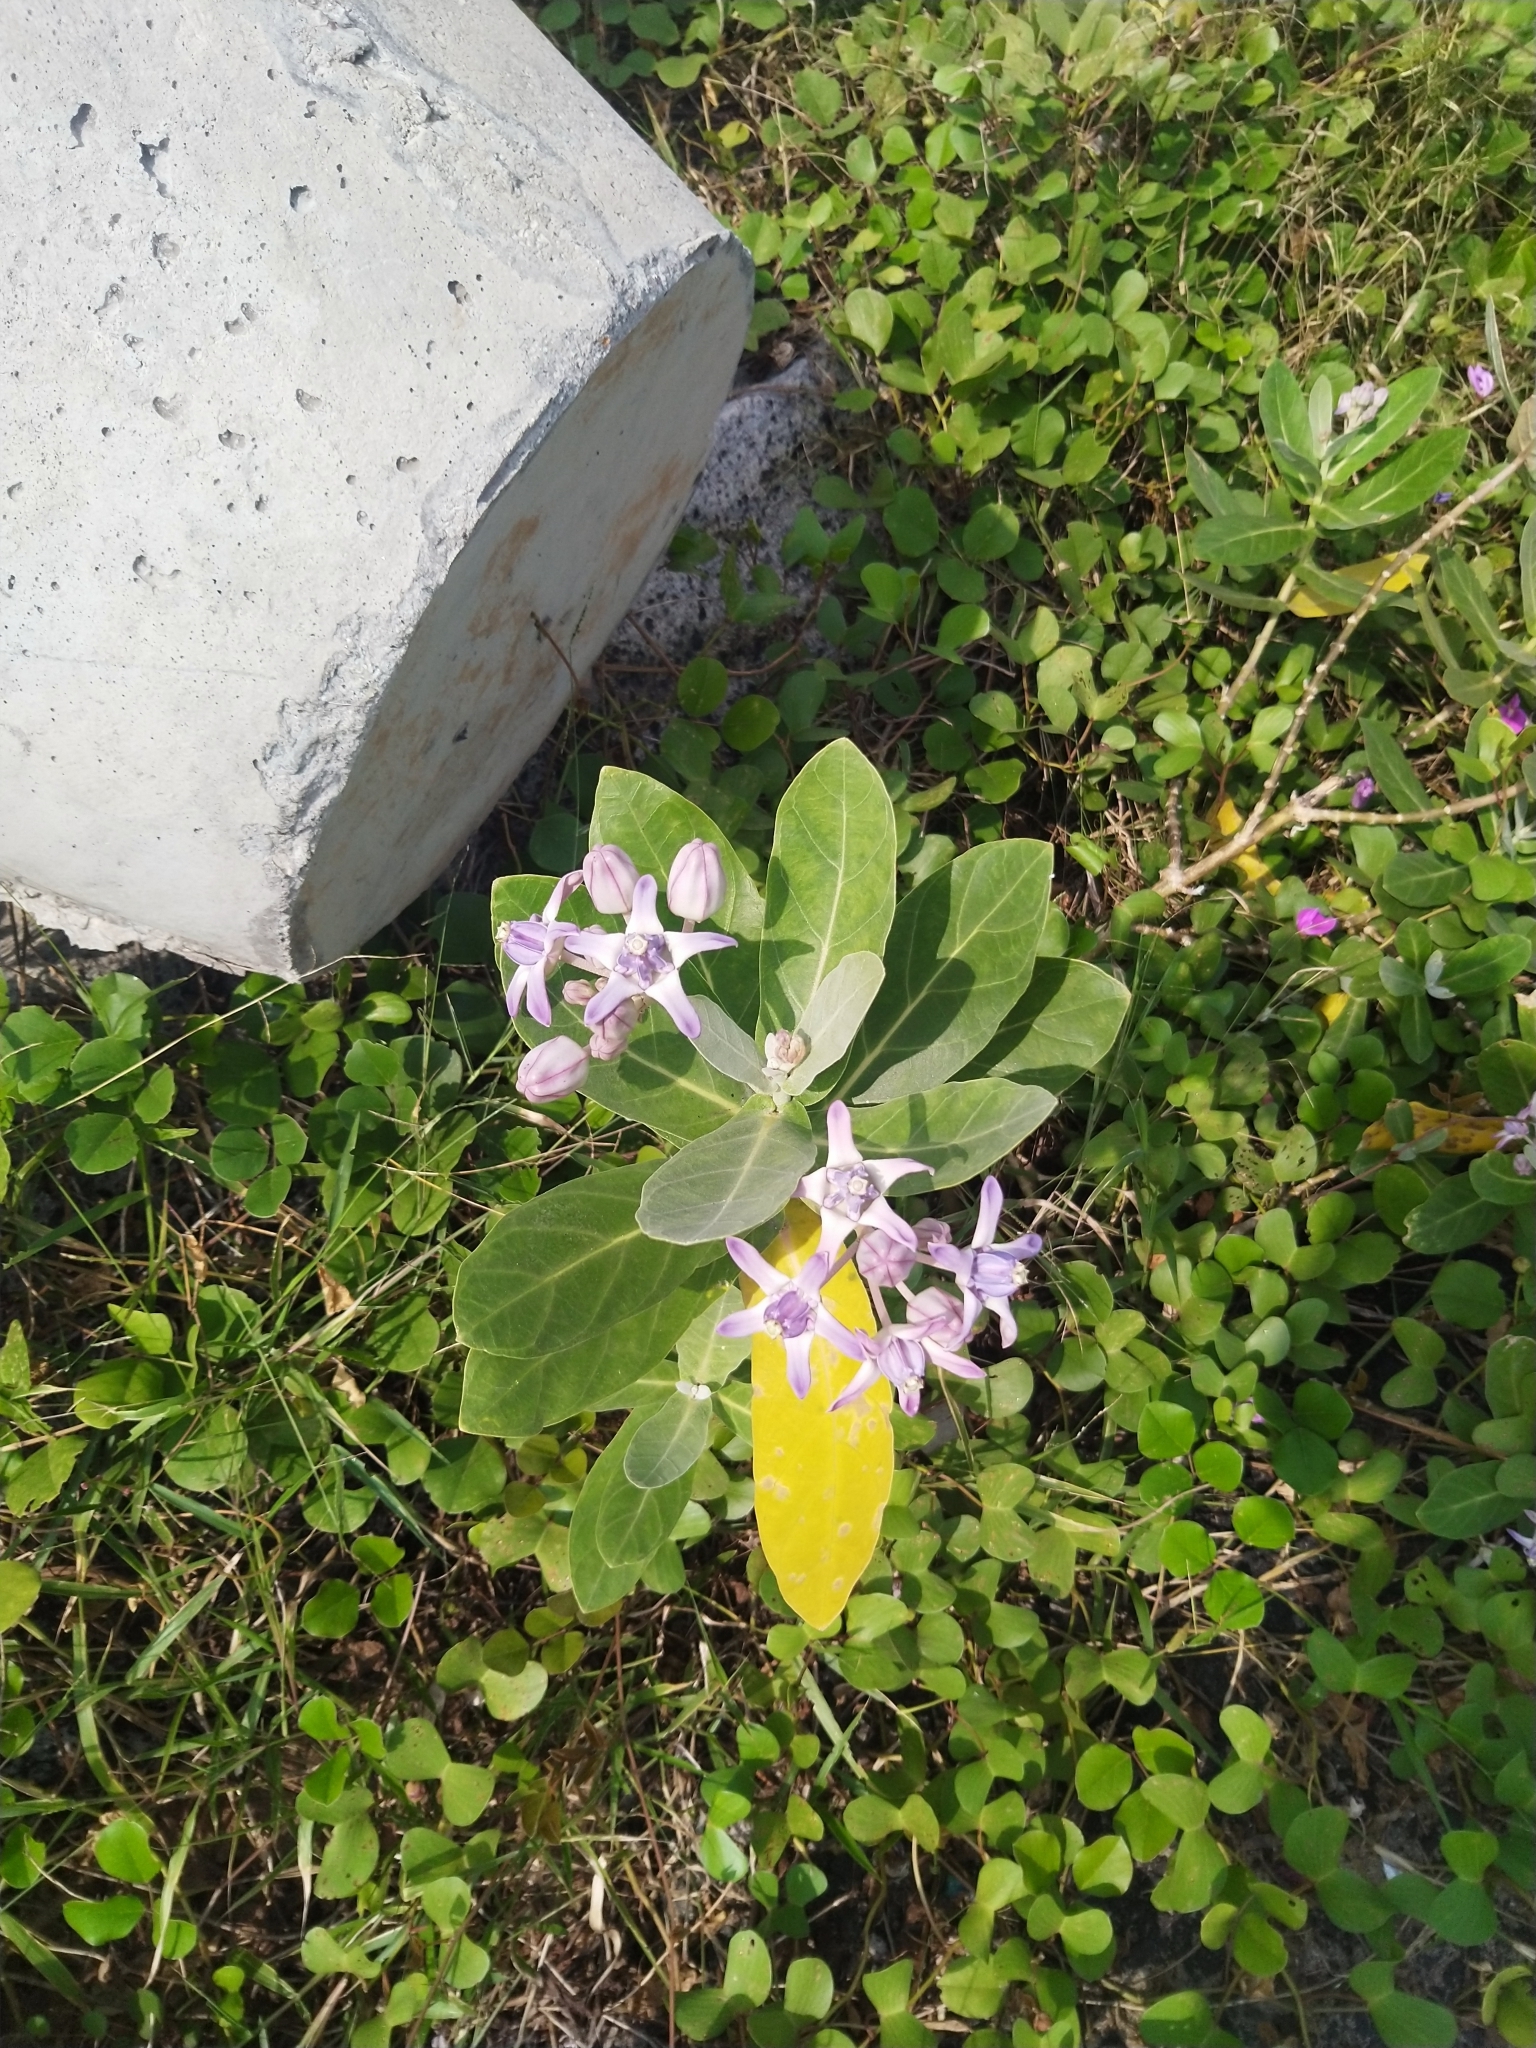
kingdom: Plantae
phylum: Tracheophyta
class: Magnoliopsida
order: Gentianales
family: Apocynaceae
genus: Calotropis
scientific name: Calotropis gigantea
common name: Crown flower
